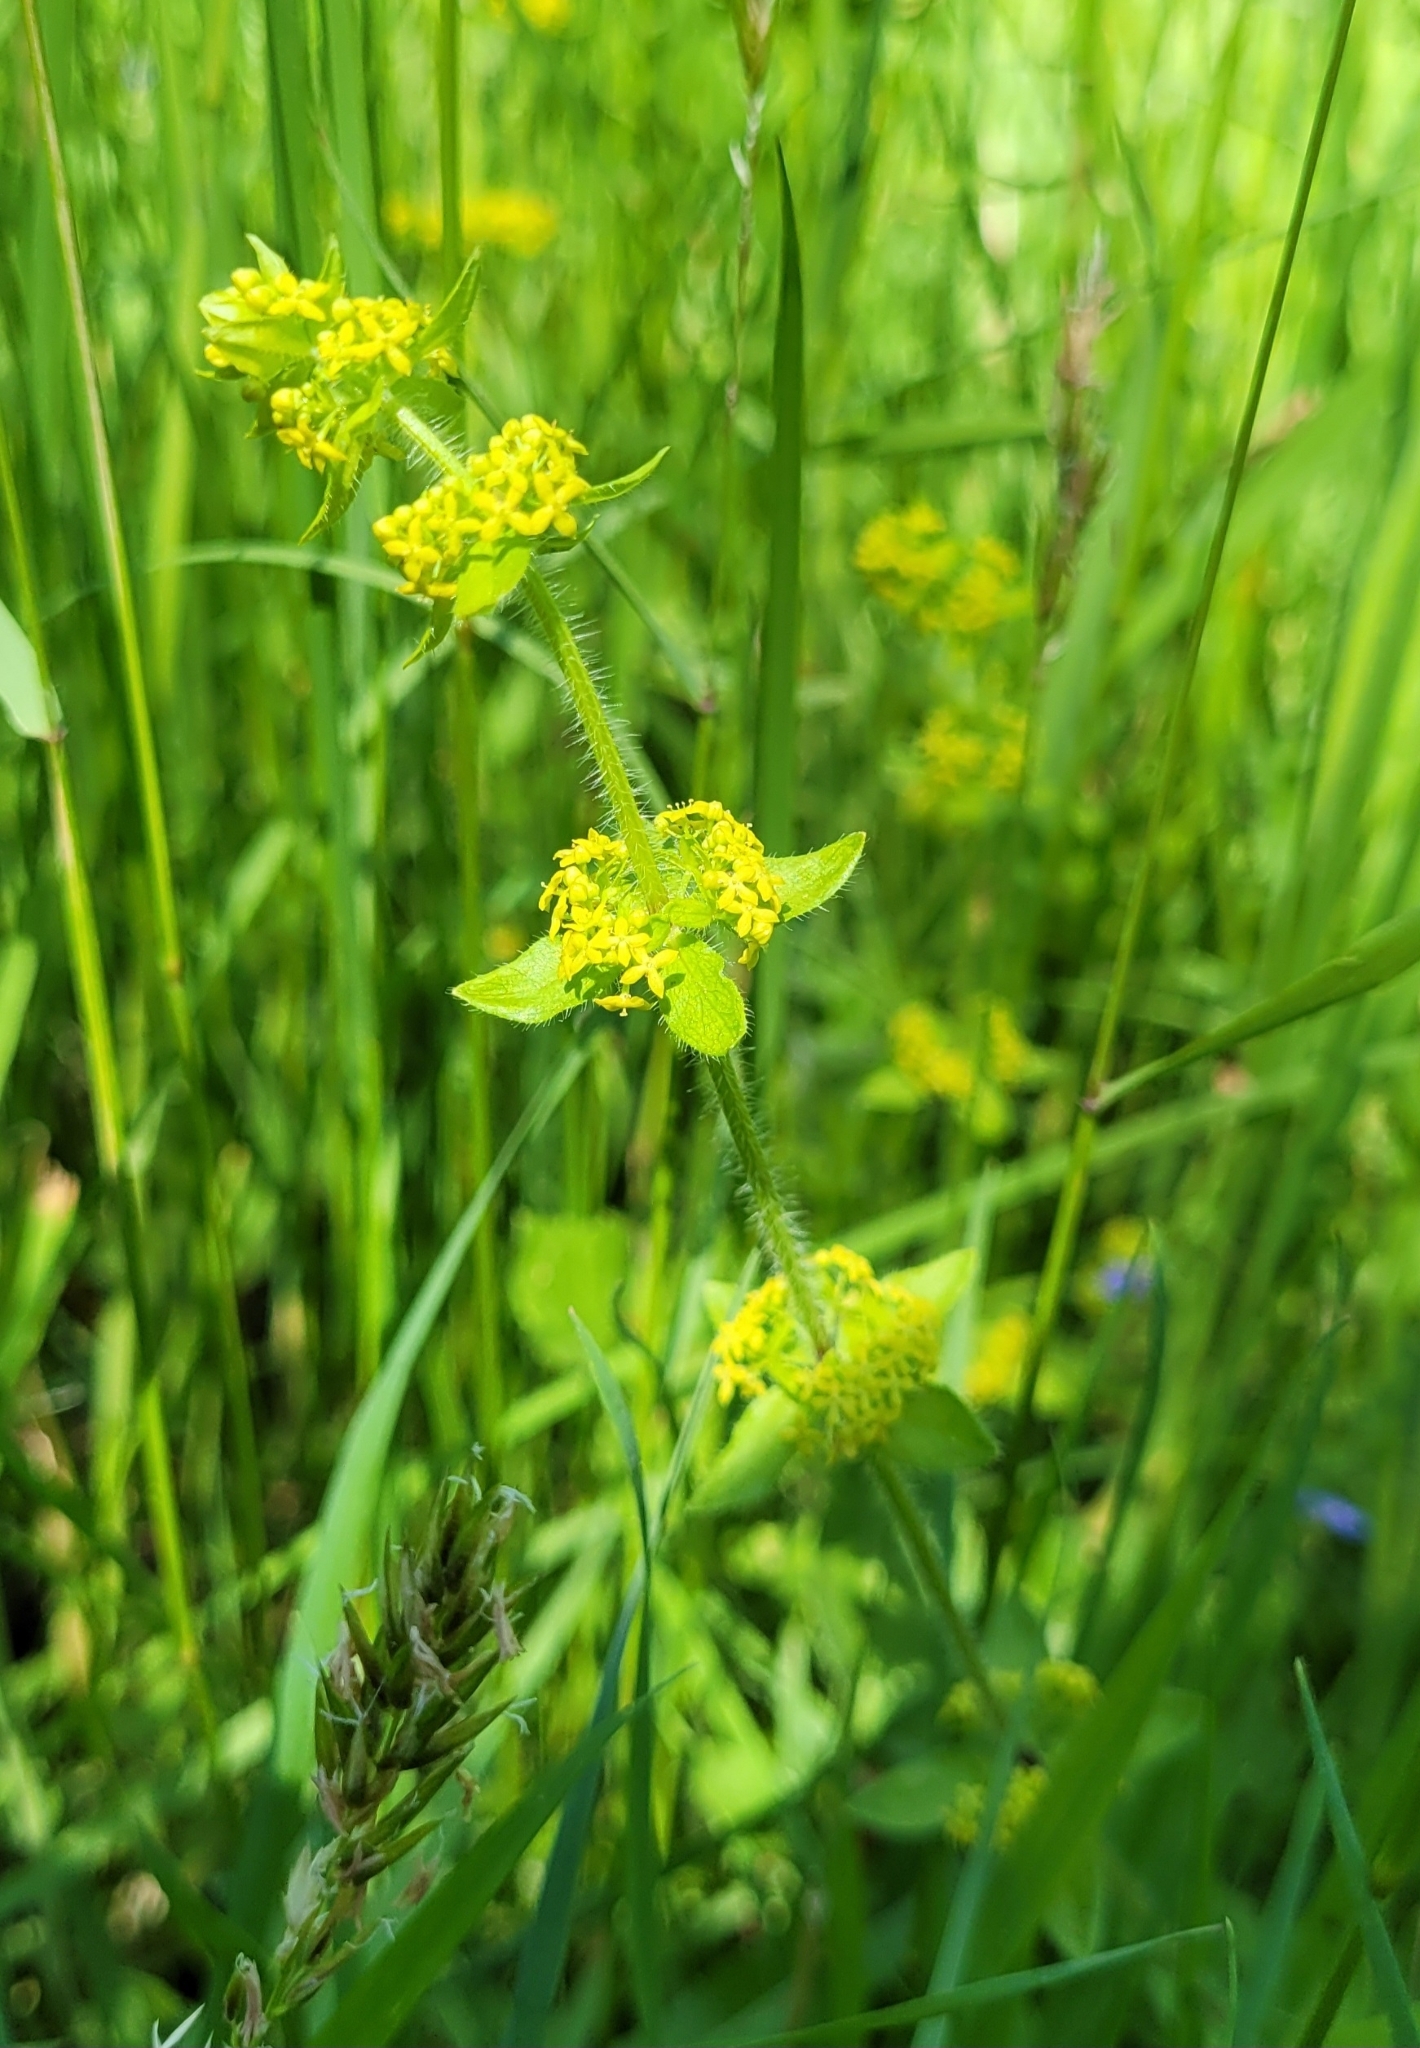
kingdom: Plantae
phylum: Tracheophyta
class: Magnoliopsida
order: Gentianales
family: Rubiaceae
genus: Cruciata
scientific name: Cruciata laevipes
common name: Crosswort
